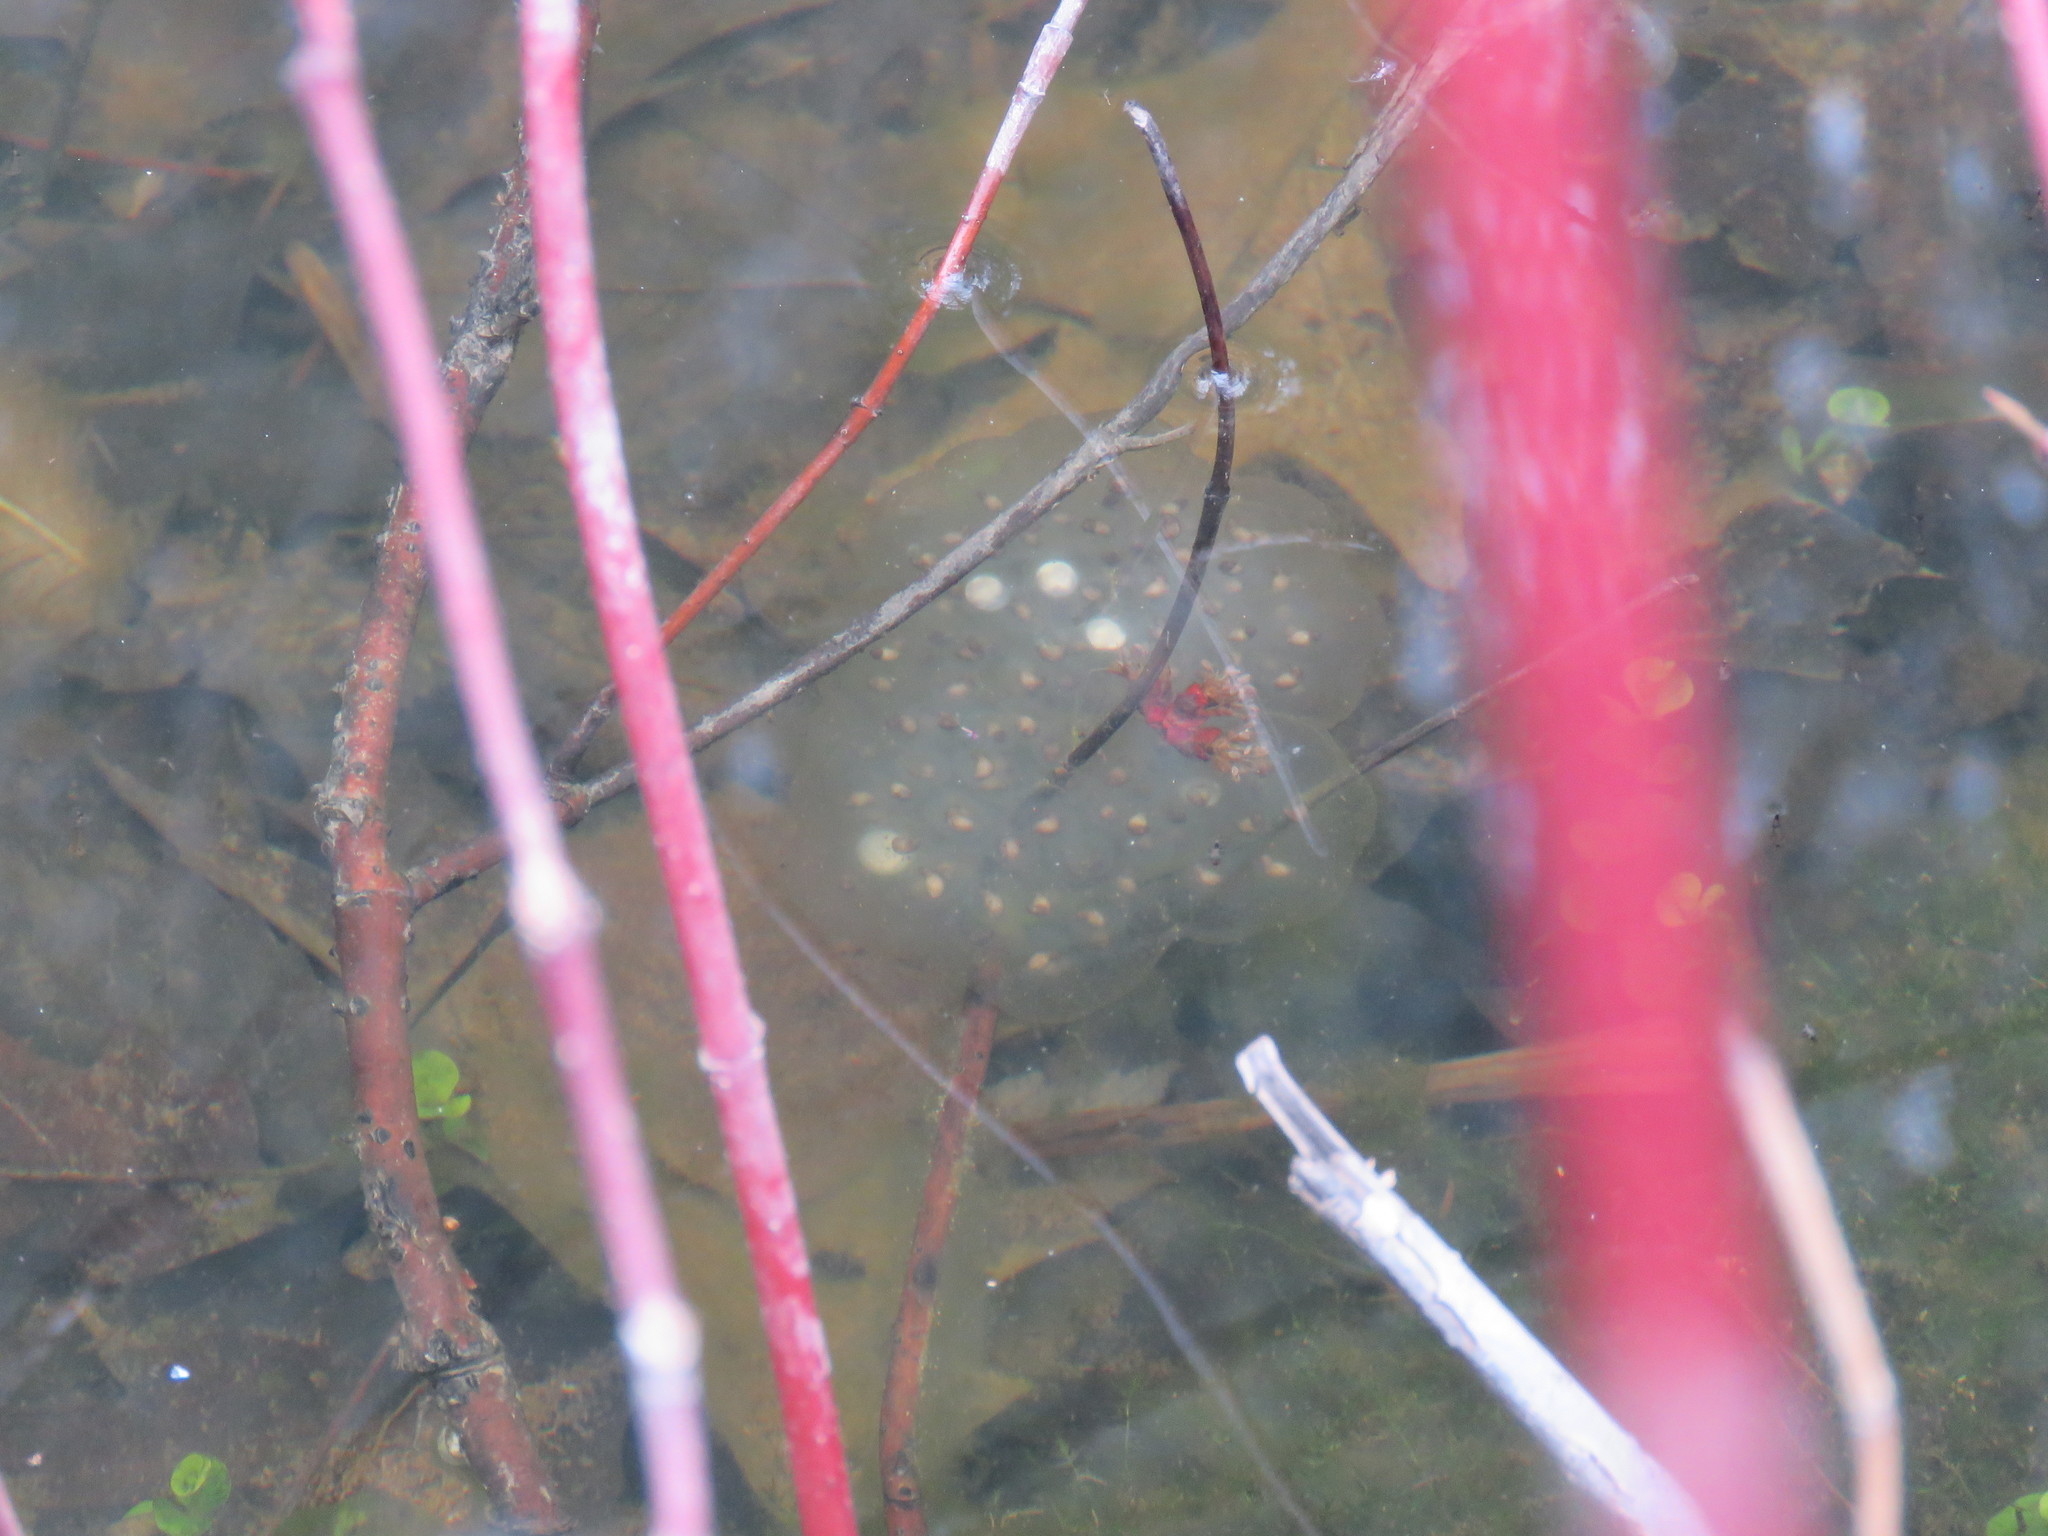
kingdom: Animalia
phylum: Chordata
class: Amphibia
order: Caudata
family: Ambystomatidae
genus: Ambystoma
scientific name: Ambystoma maculatum
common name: Spotted salamander
